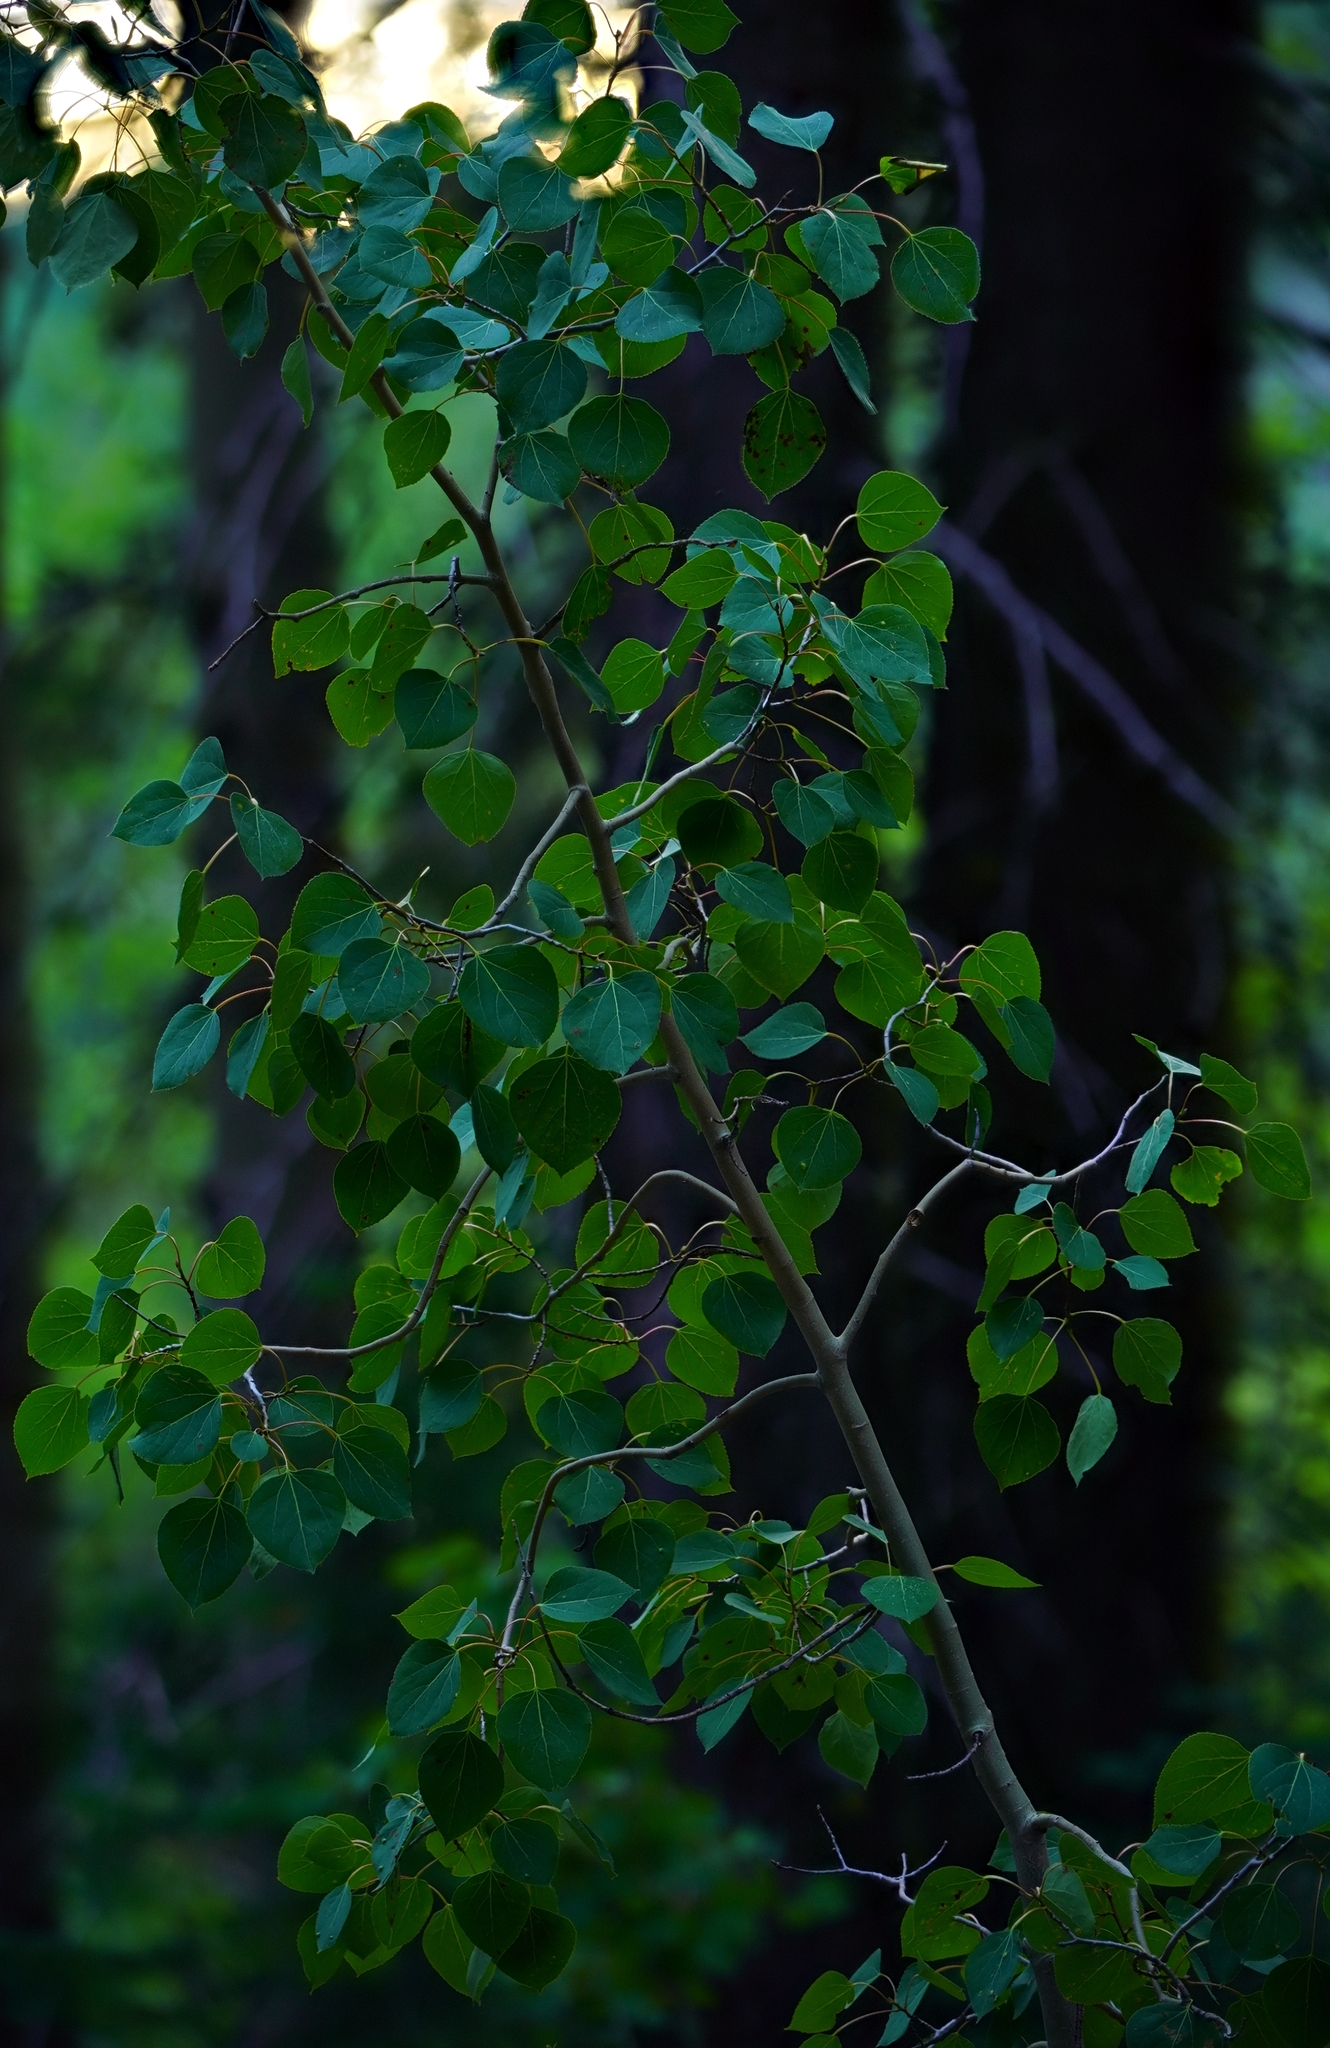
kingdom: Plantae
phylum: Tracheophyta
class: Magnoliopsida
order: Malpighiales
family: Salicaceae
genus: Populus
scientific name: Populus tremuloides
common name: Quaking aspen
